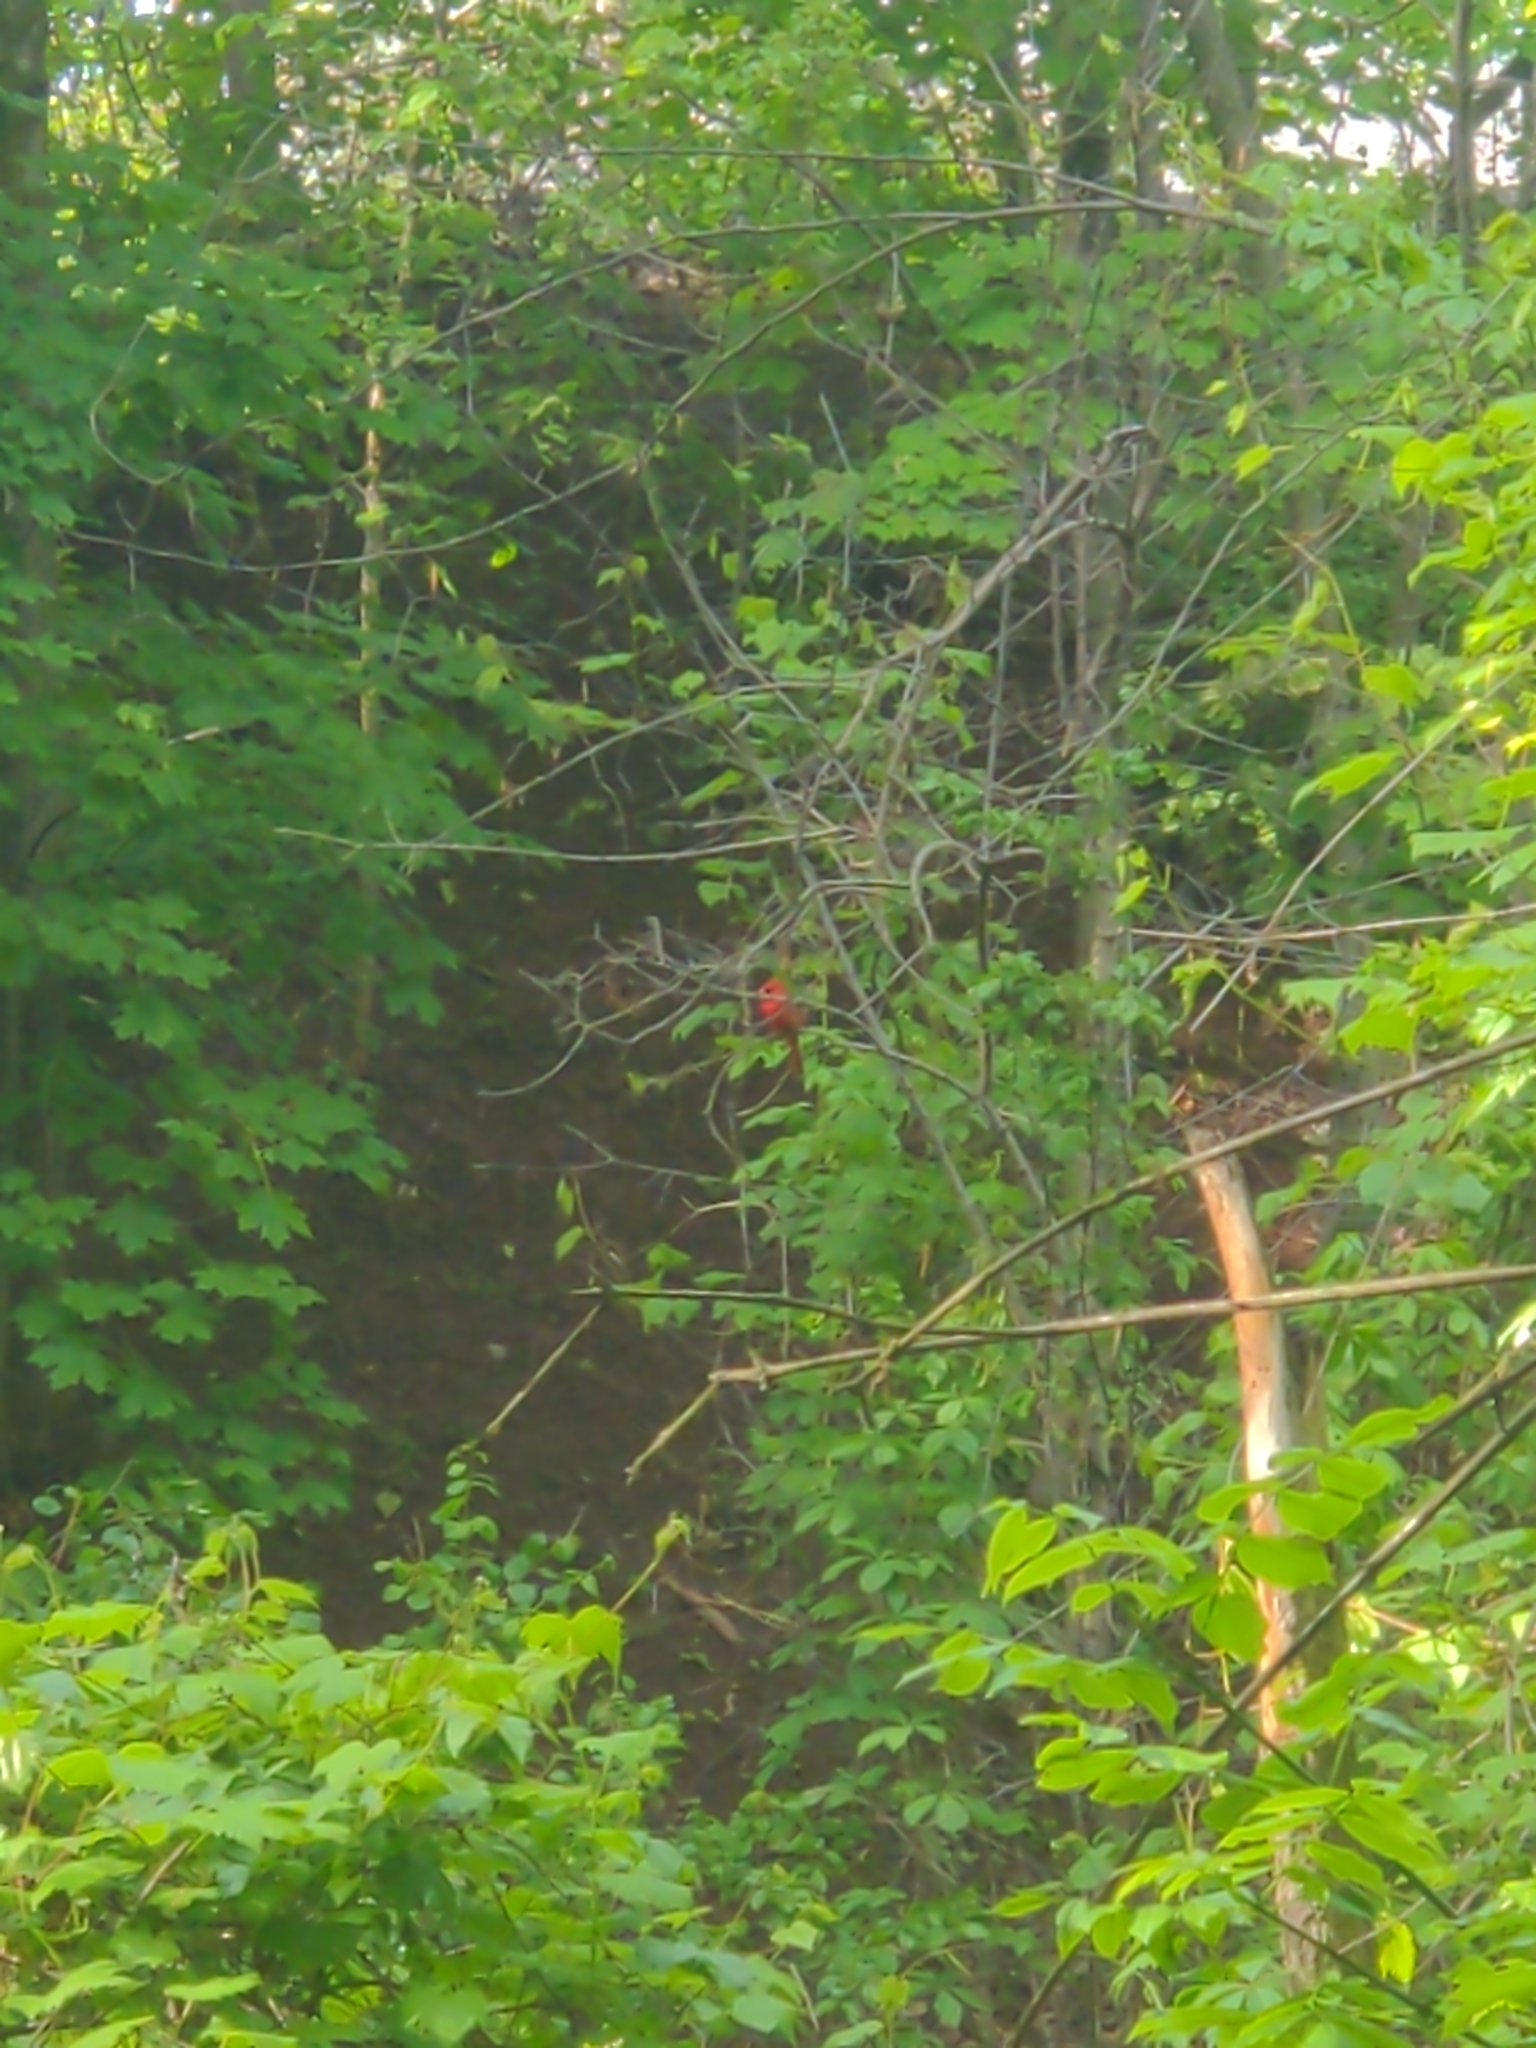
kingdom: Animalia
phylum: Chordata
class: Aves
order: Passeriformes
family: Cardinalidae
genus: Cardinalis
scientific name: Cardinalis cardinalis
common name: Northern cardinal
